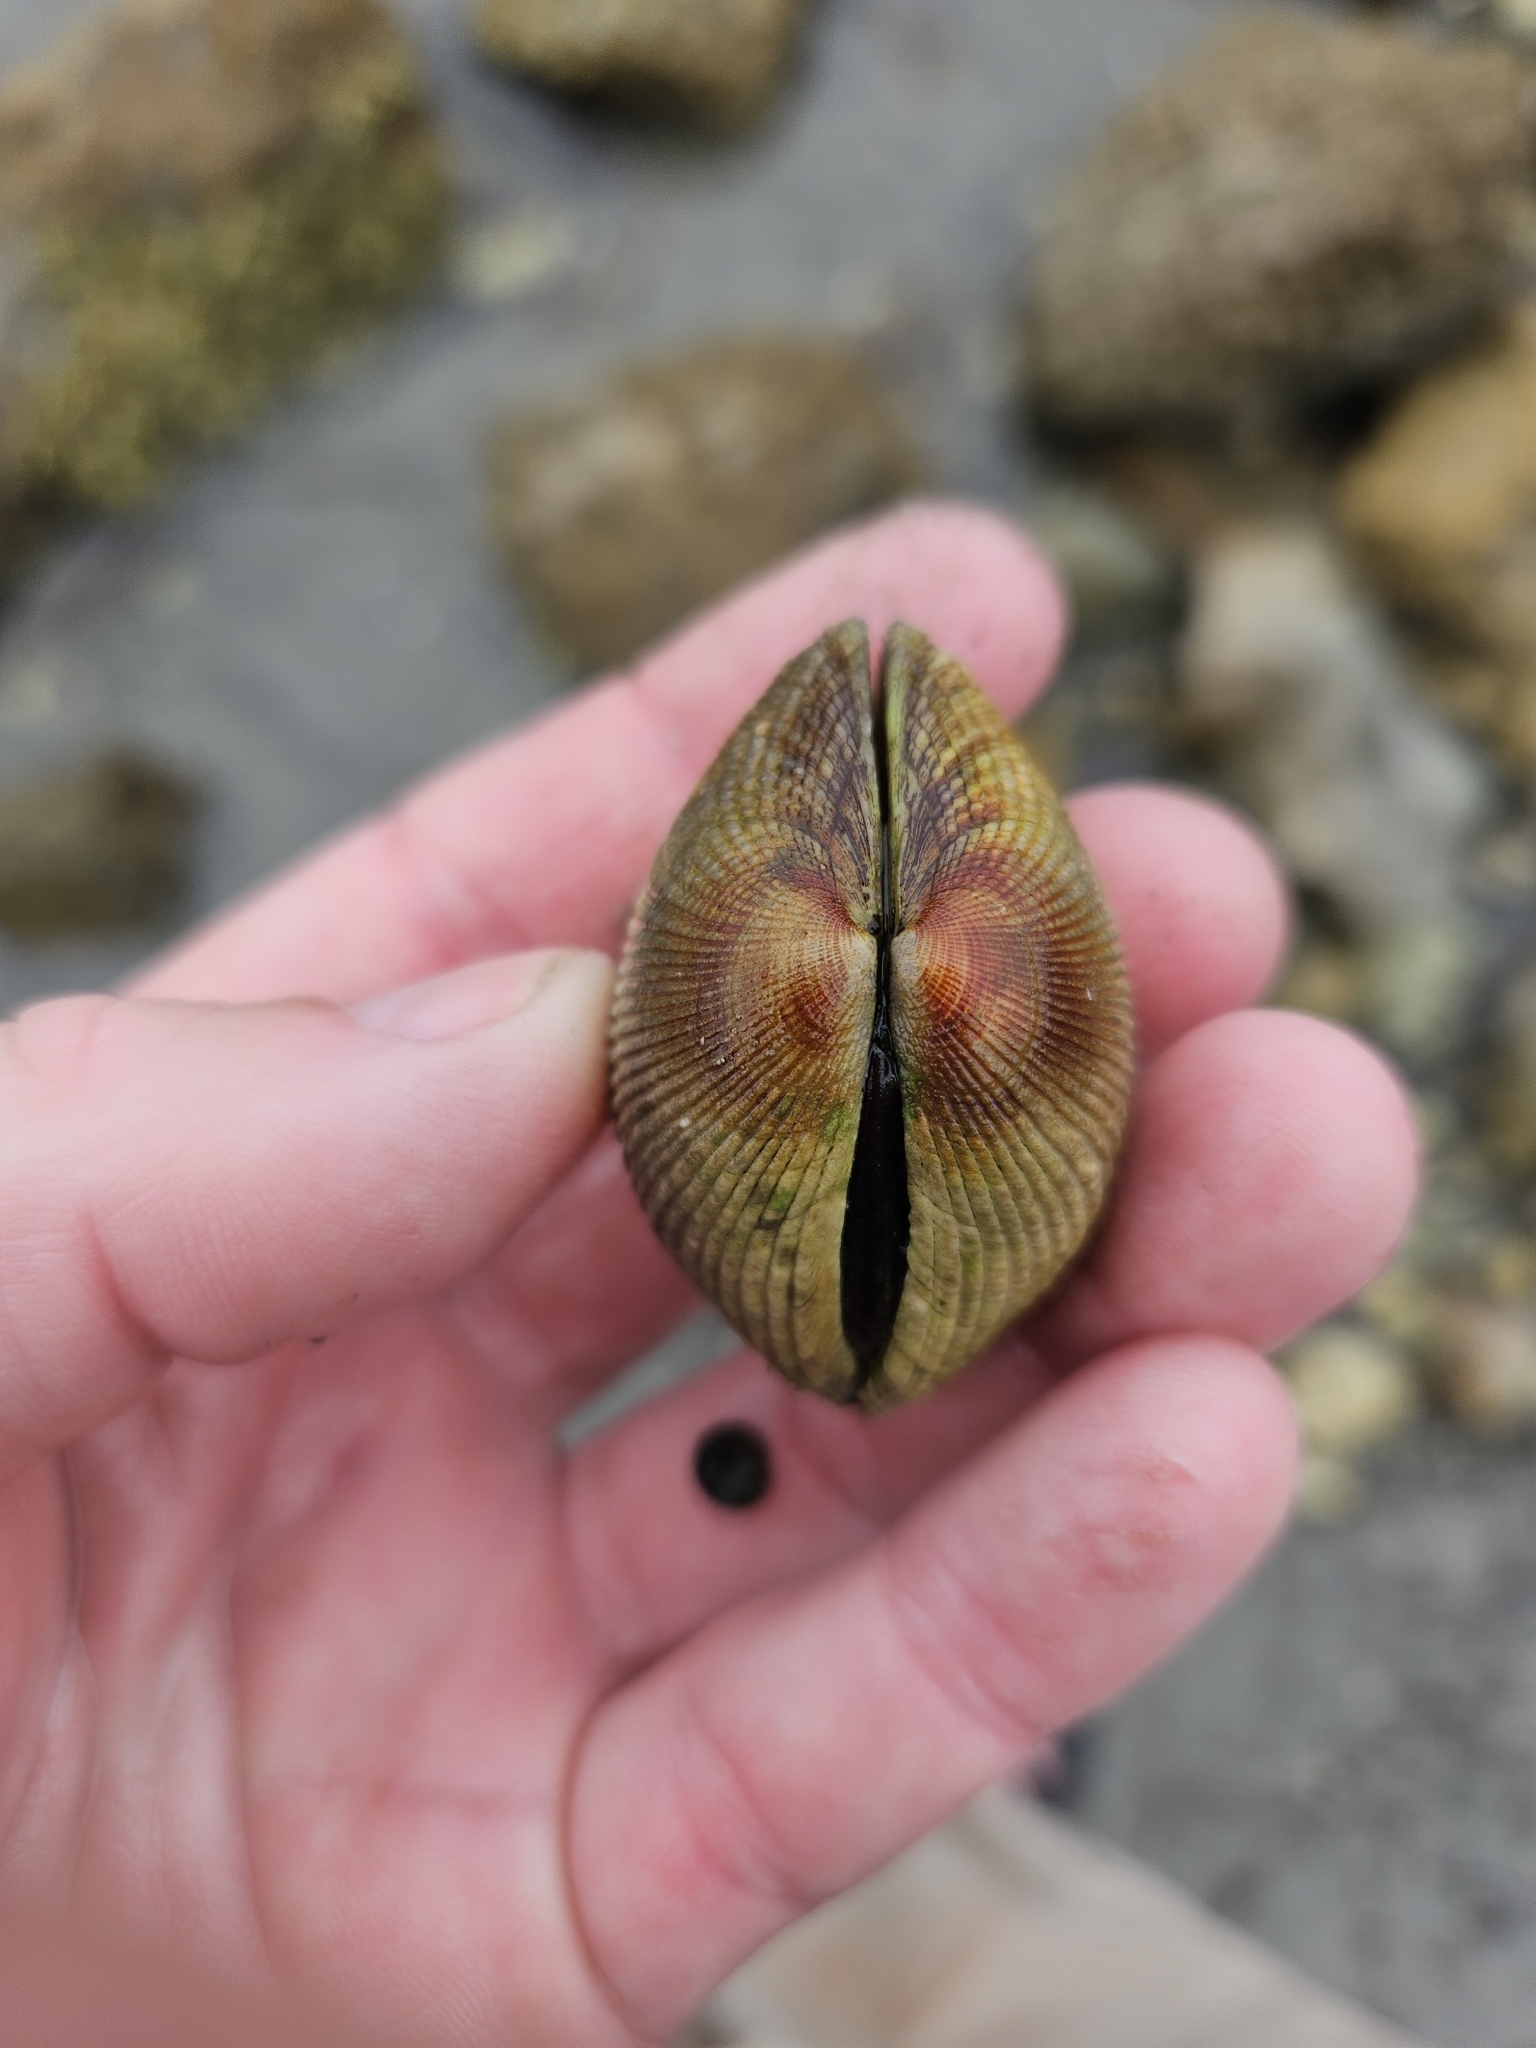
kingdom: Animalia
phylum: Mollusca
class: Bivalvia
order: Venerida
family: Veneridae
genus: Leukoma
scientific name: Leukoma crassicosta
